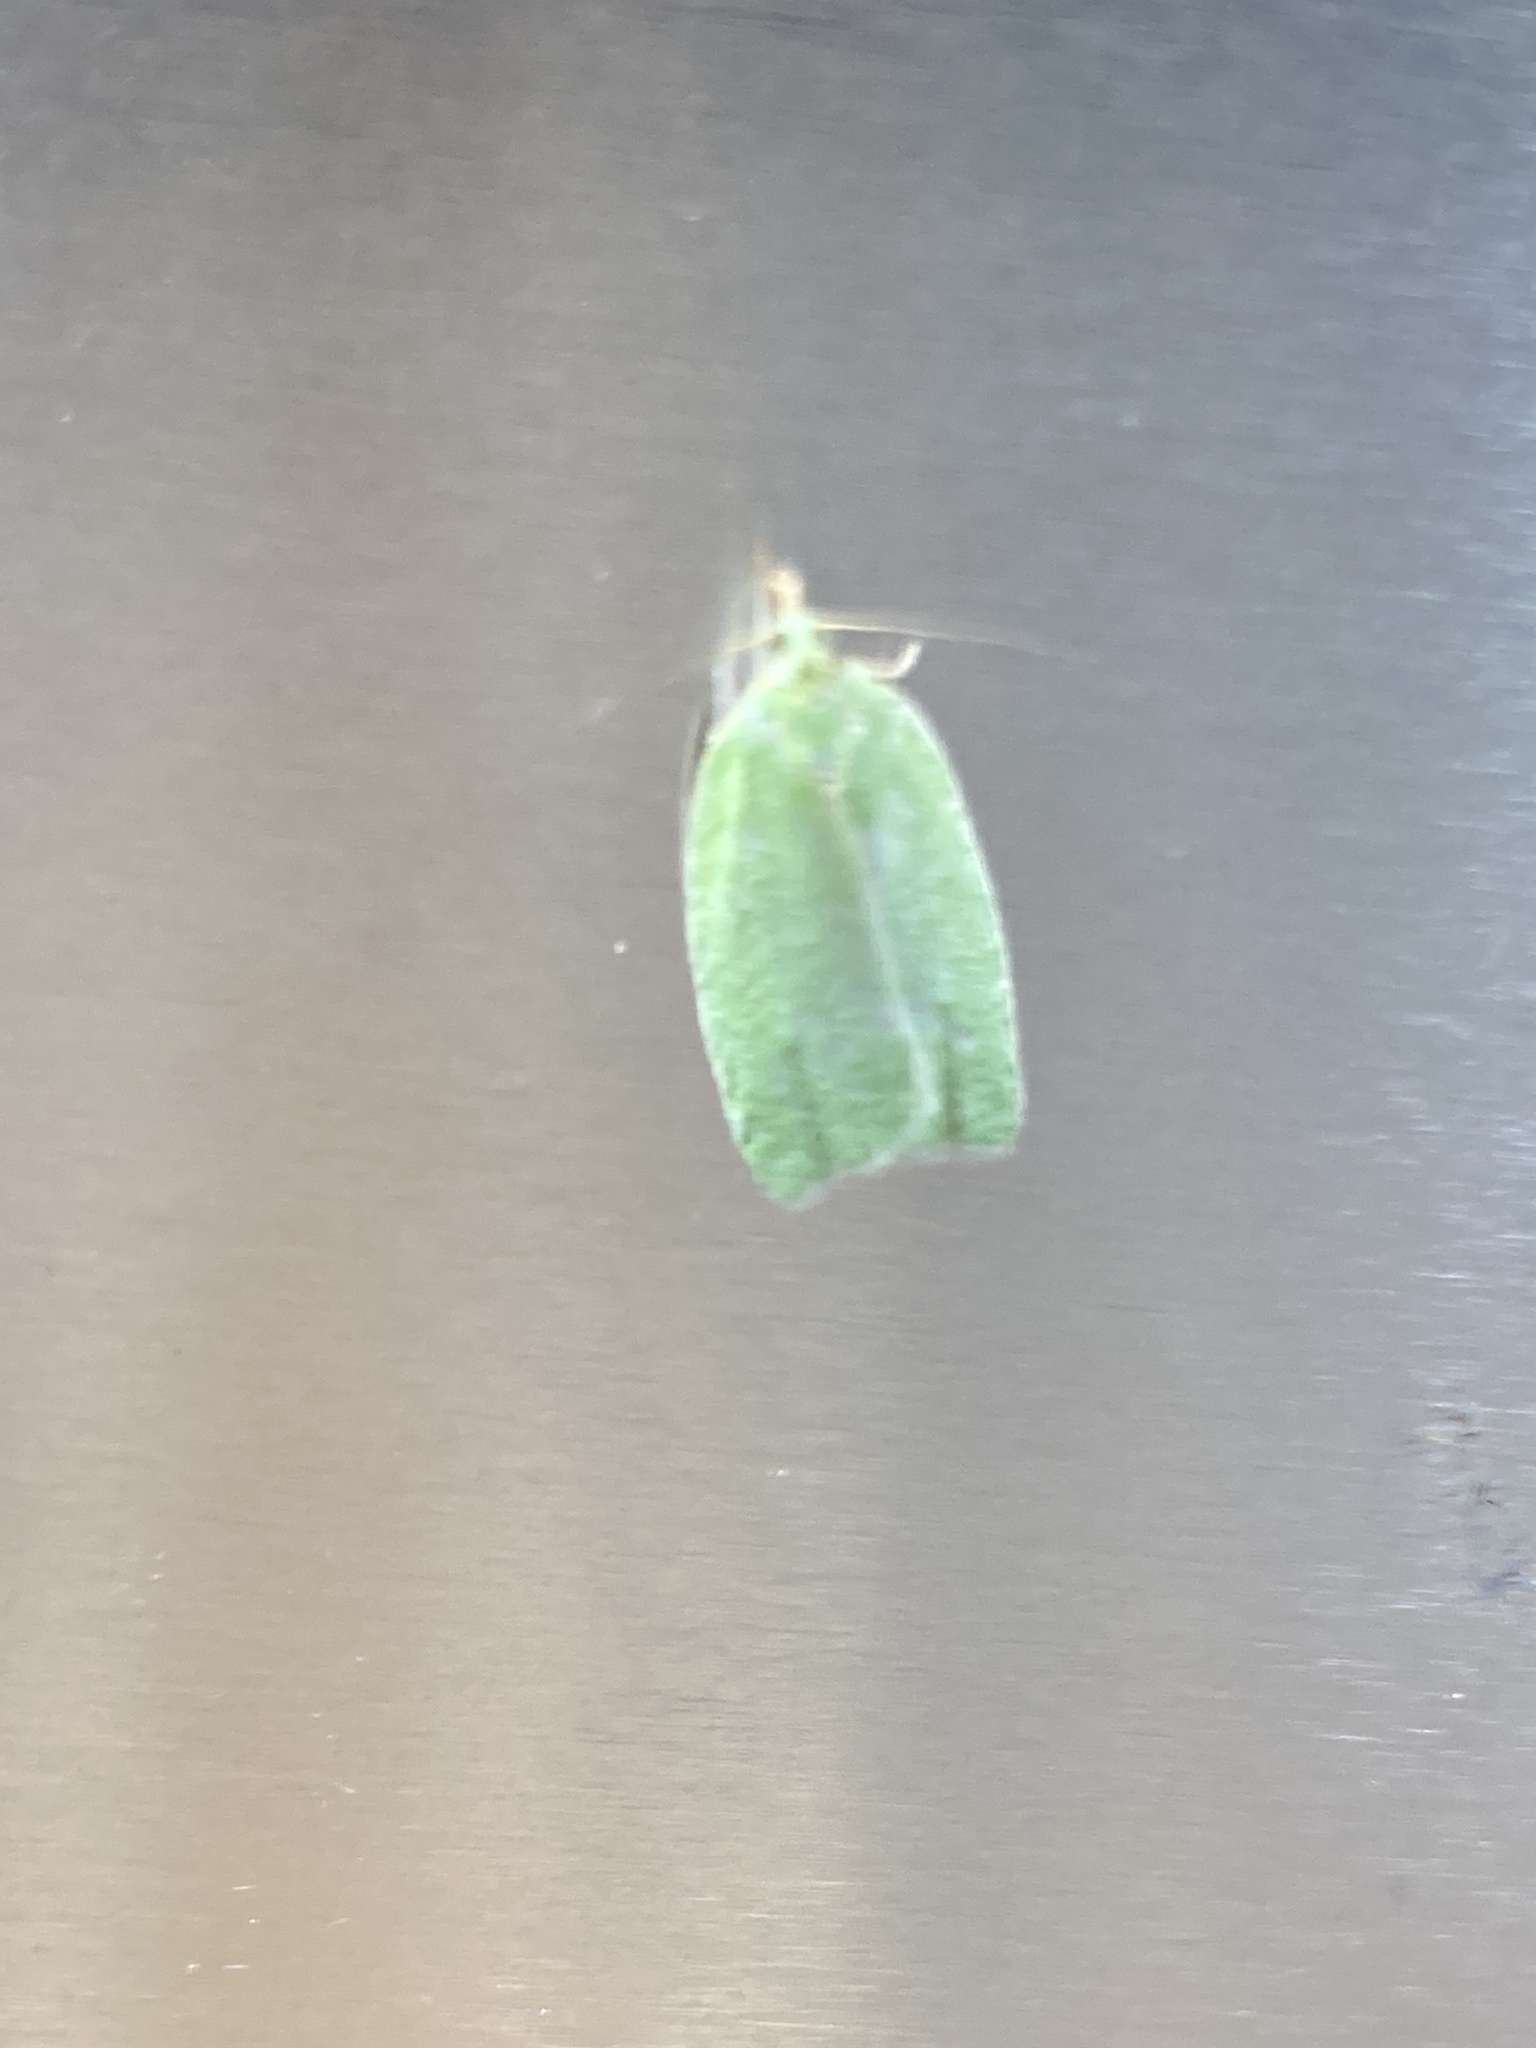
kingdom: Animalia
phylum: Arthropoda
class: Insecta
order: Lepidoptera
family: Tortricidae
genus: Tortrix
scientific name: Tortrix viridana
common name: Green oak tortrix
